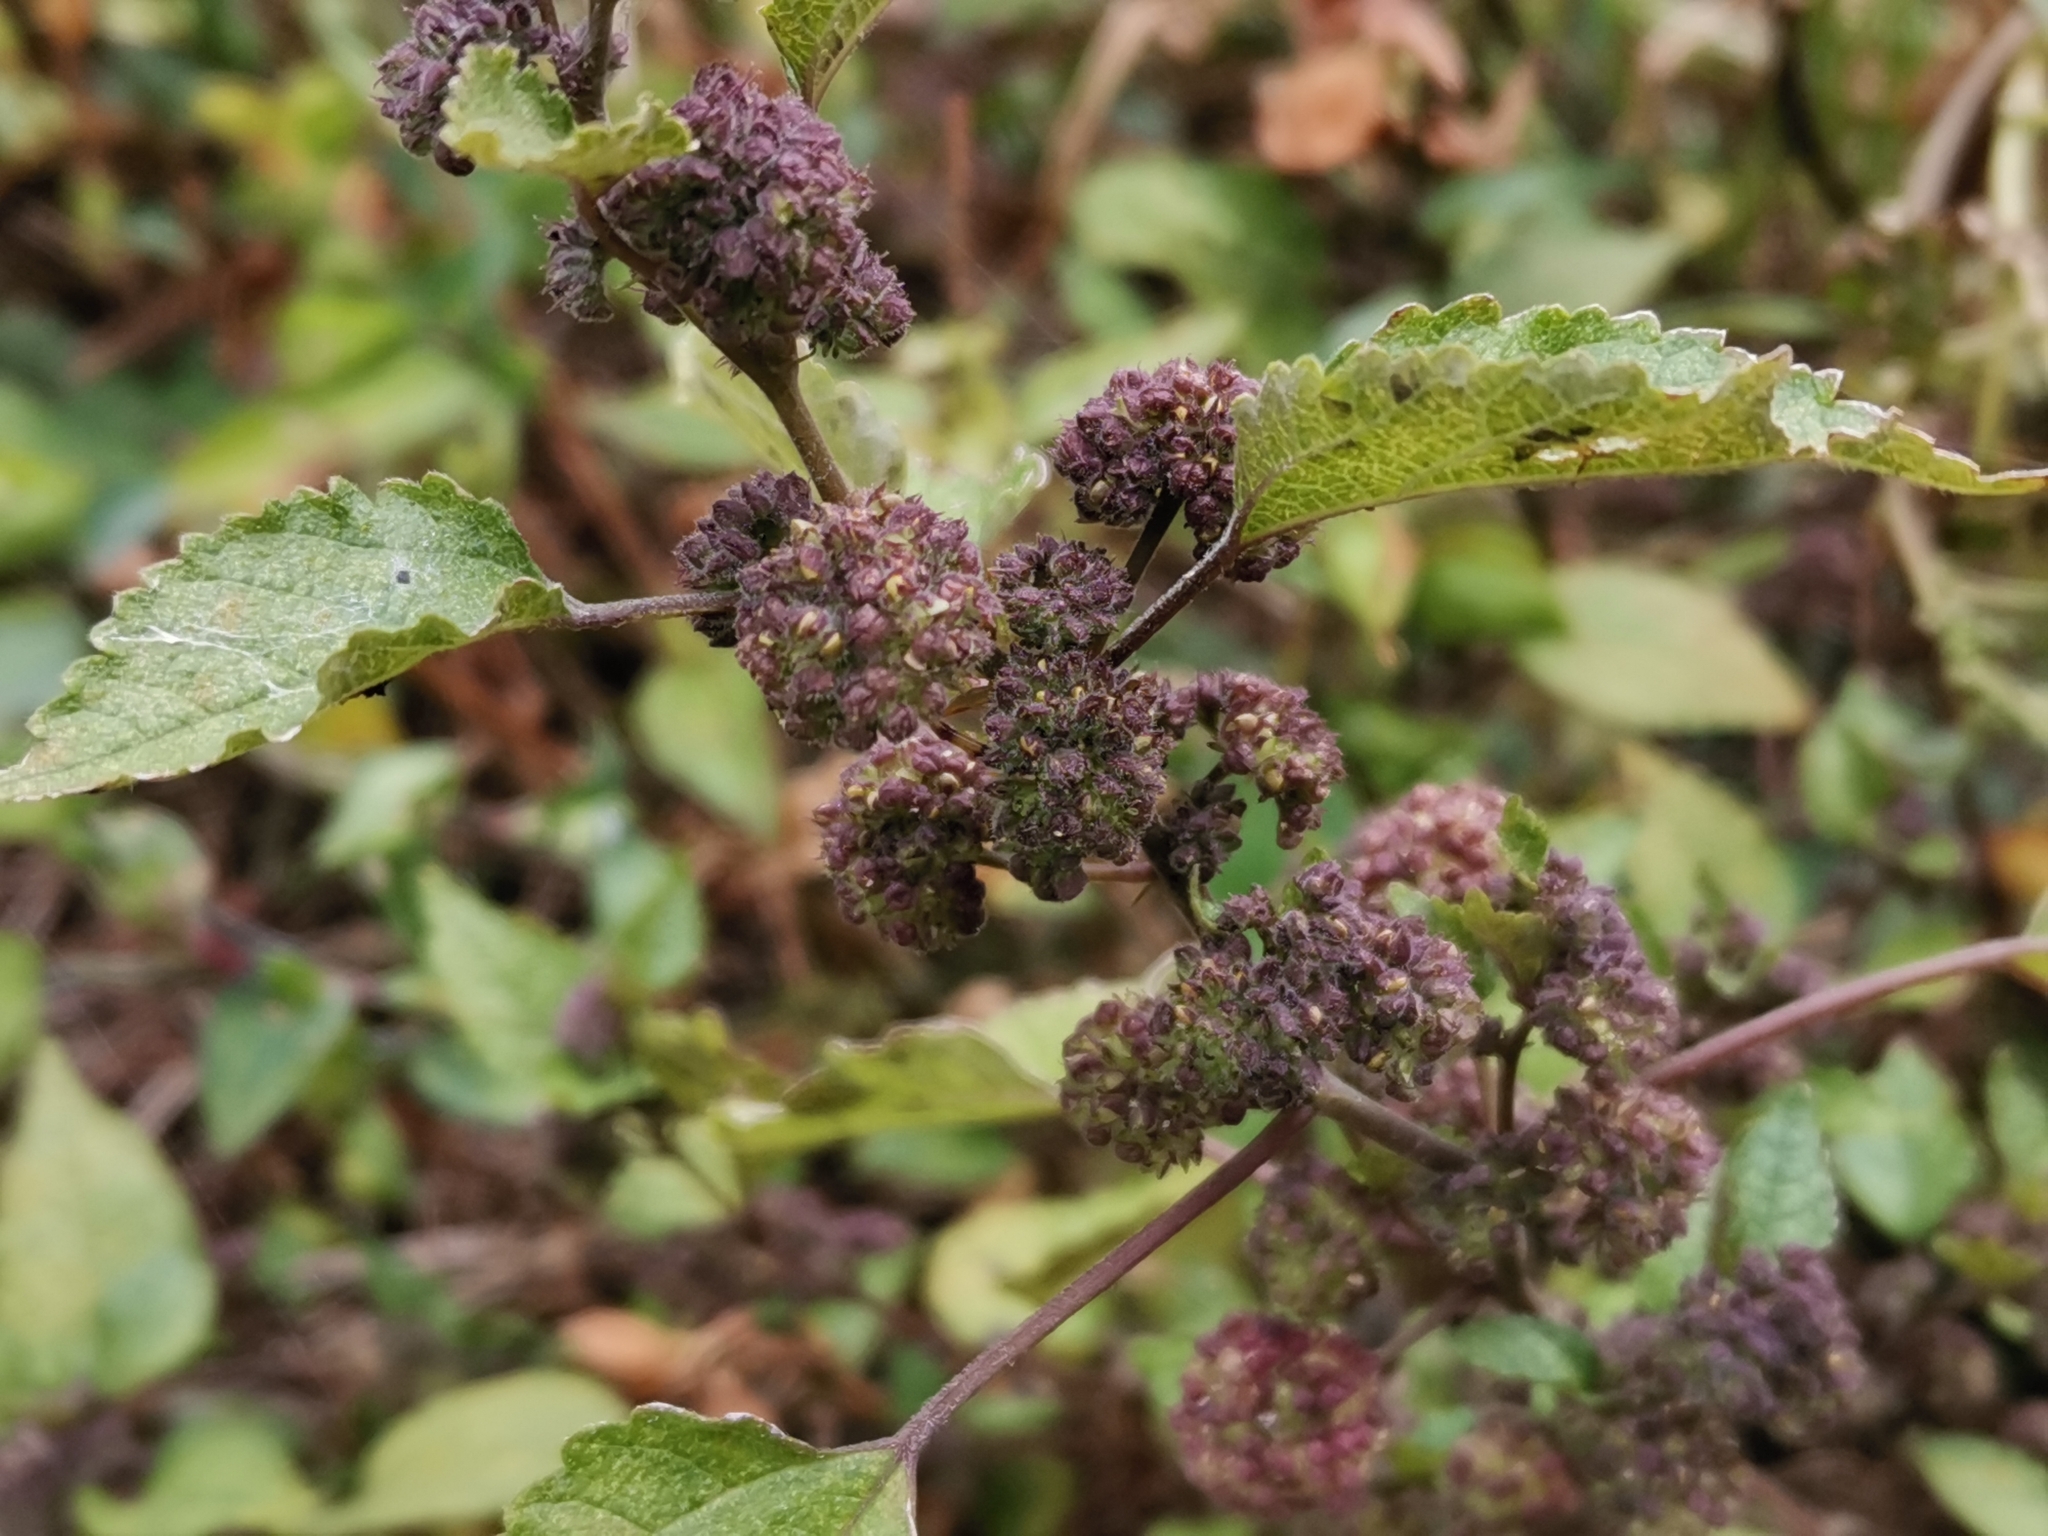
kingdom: Plantae
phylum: Tracheophyta
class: Magnoliopsida
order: Rosales
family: Moraceae
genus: Fatoua
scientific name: Fatoua villosa
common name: Hairy crabweed
